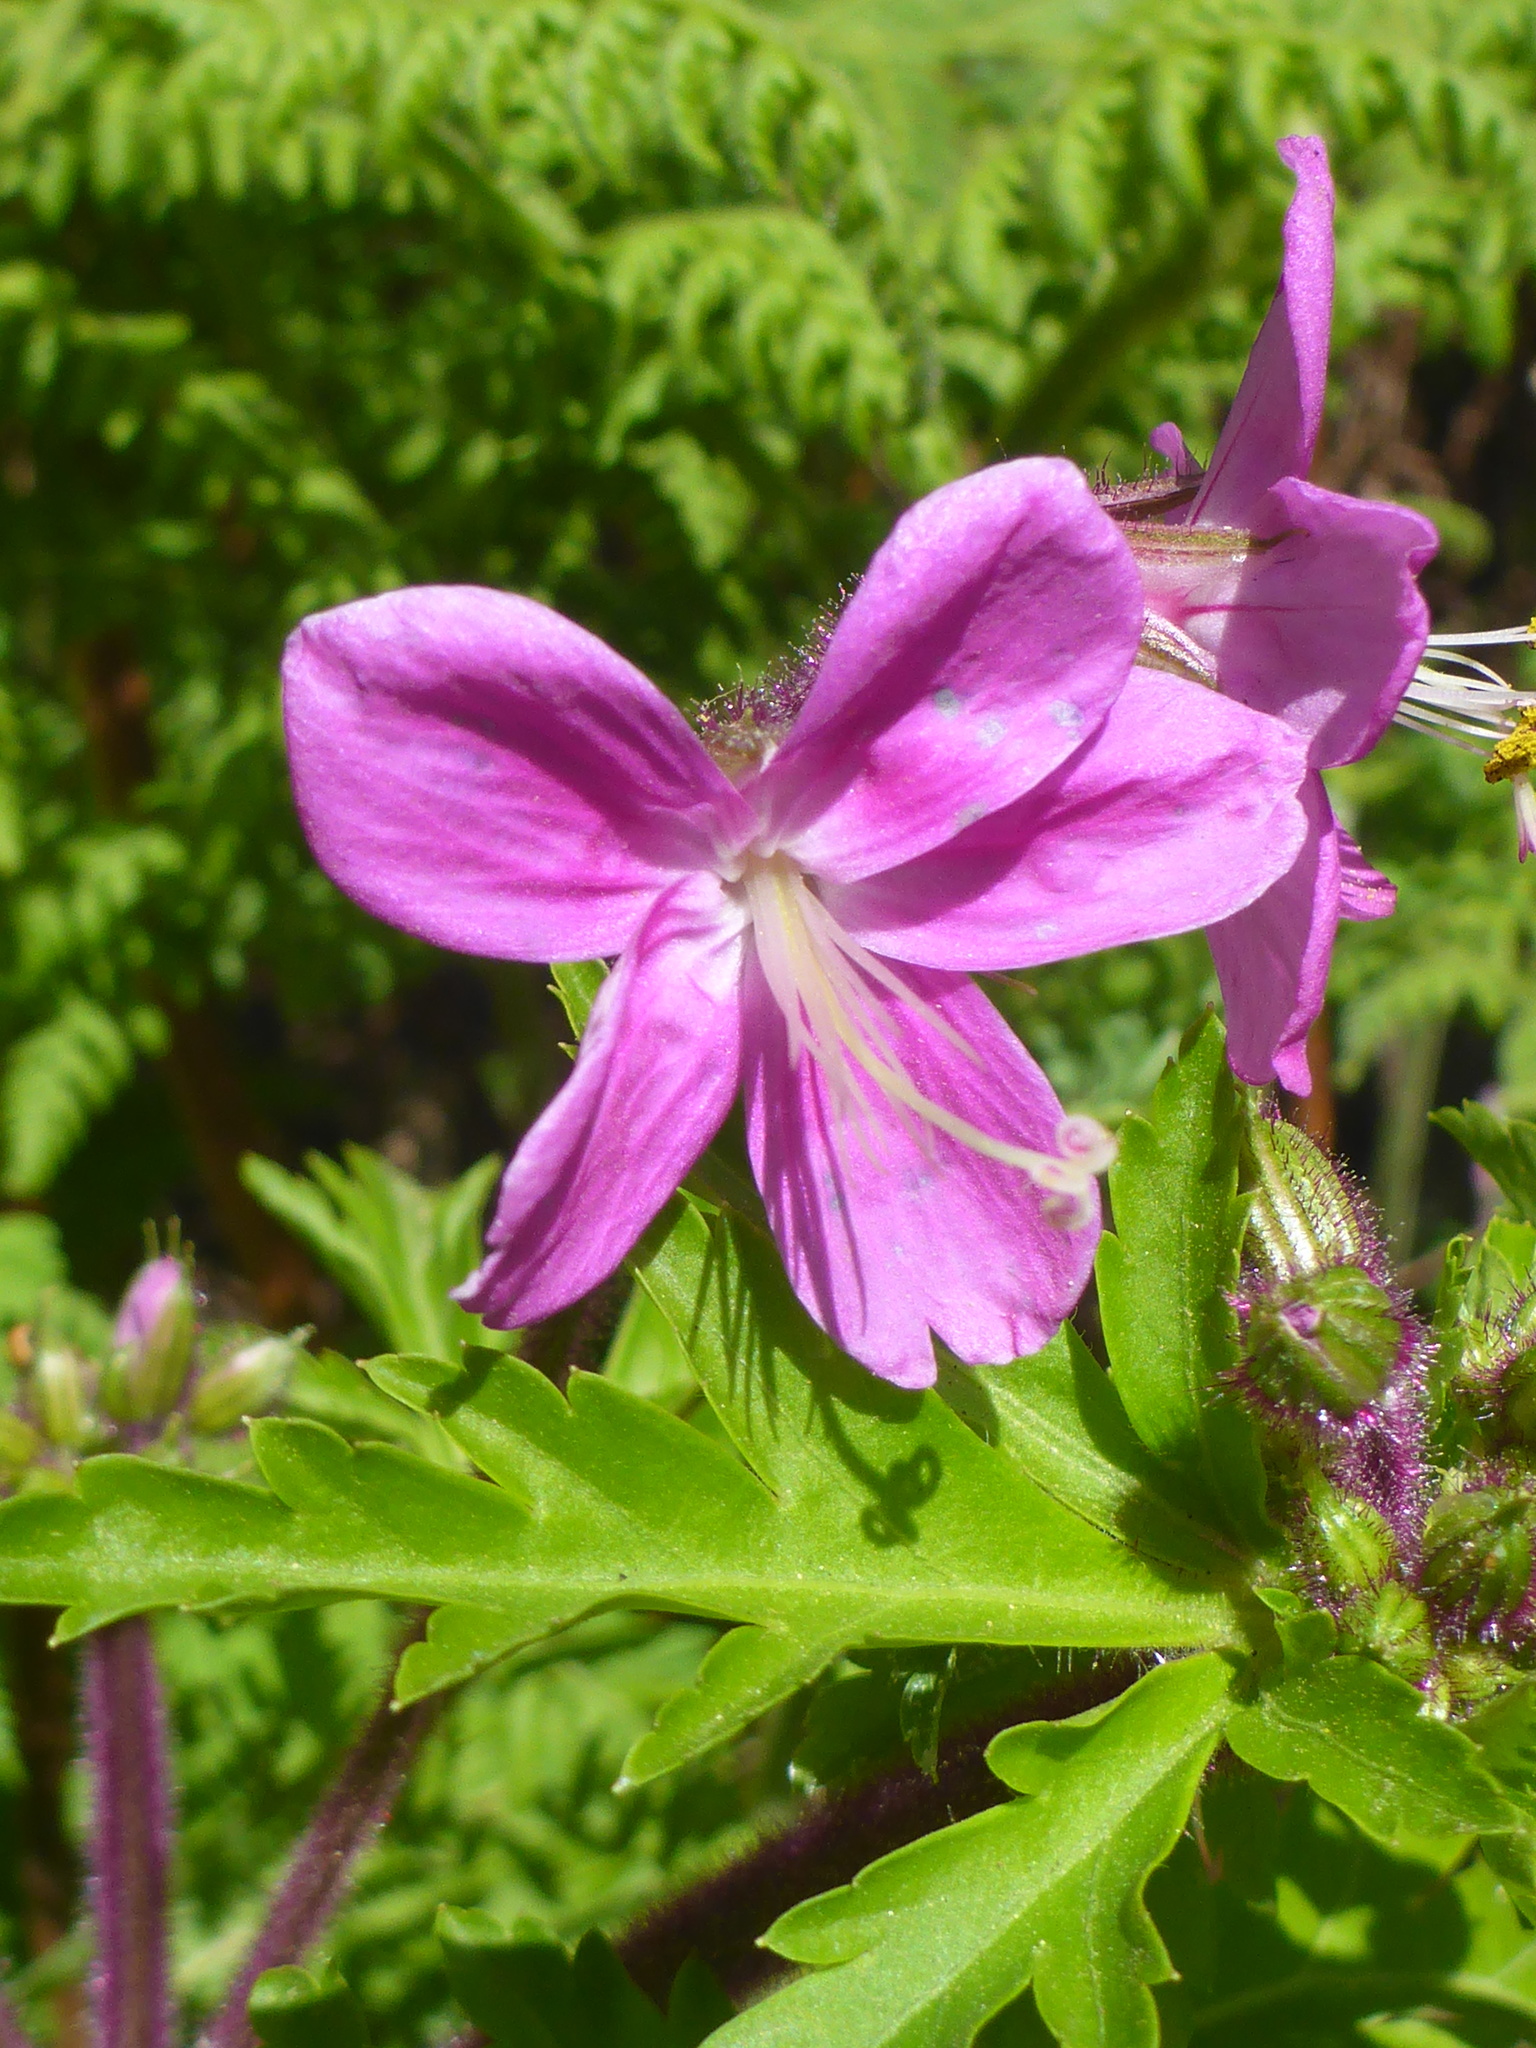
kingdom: Plantae
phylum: Tracheophyta
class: Magnoliopsida
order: Geraniales
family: Geraniaceae
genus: Geranium
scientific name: Geranium reuteri
